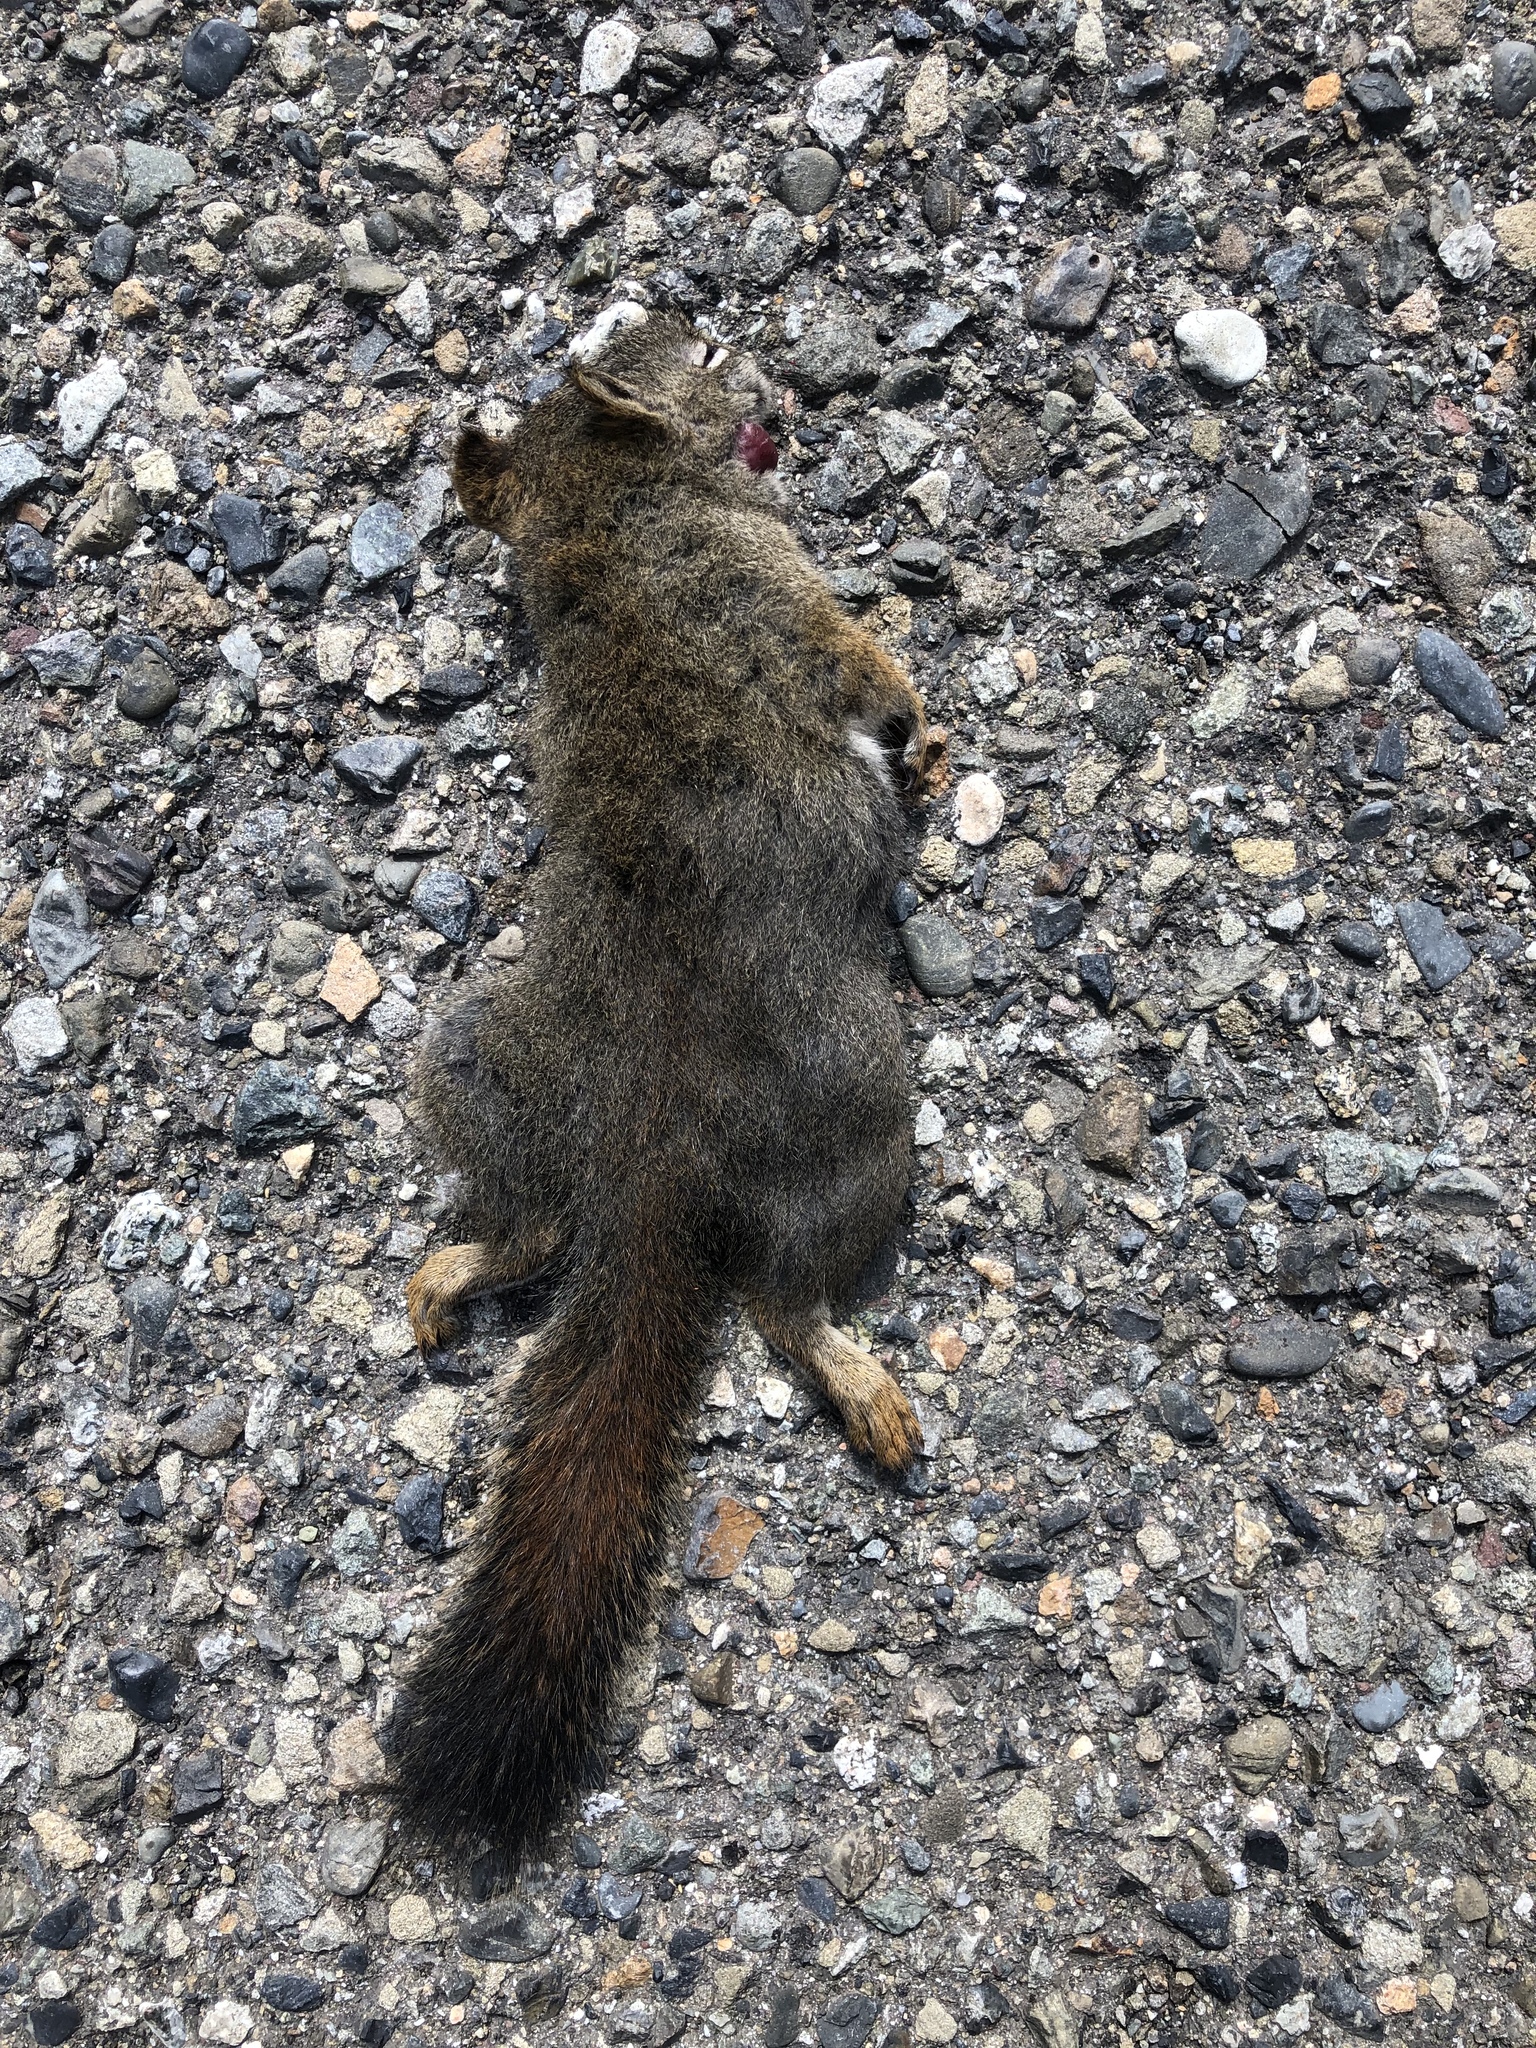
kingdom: Animalia
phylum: Chordata
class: Mammalia
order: Rodentia
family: Sciuridae
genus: Tamiasciurus
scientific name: Tamiasciurus hudsonicus
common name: Red squirrel
